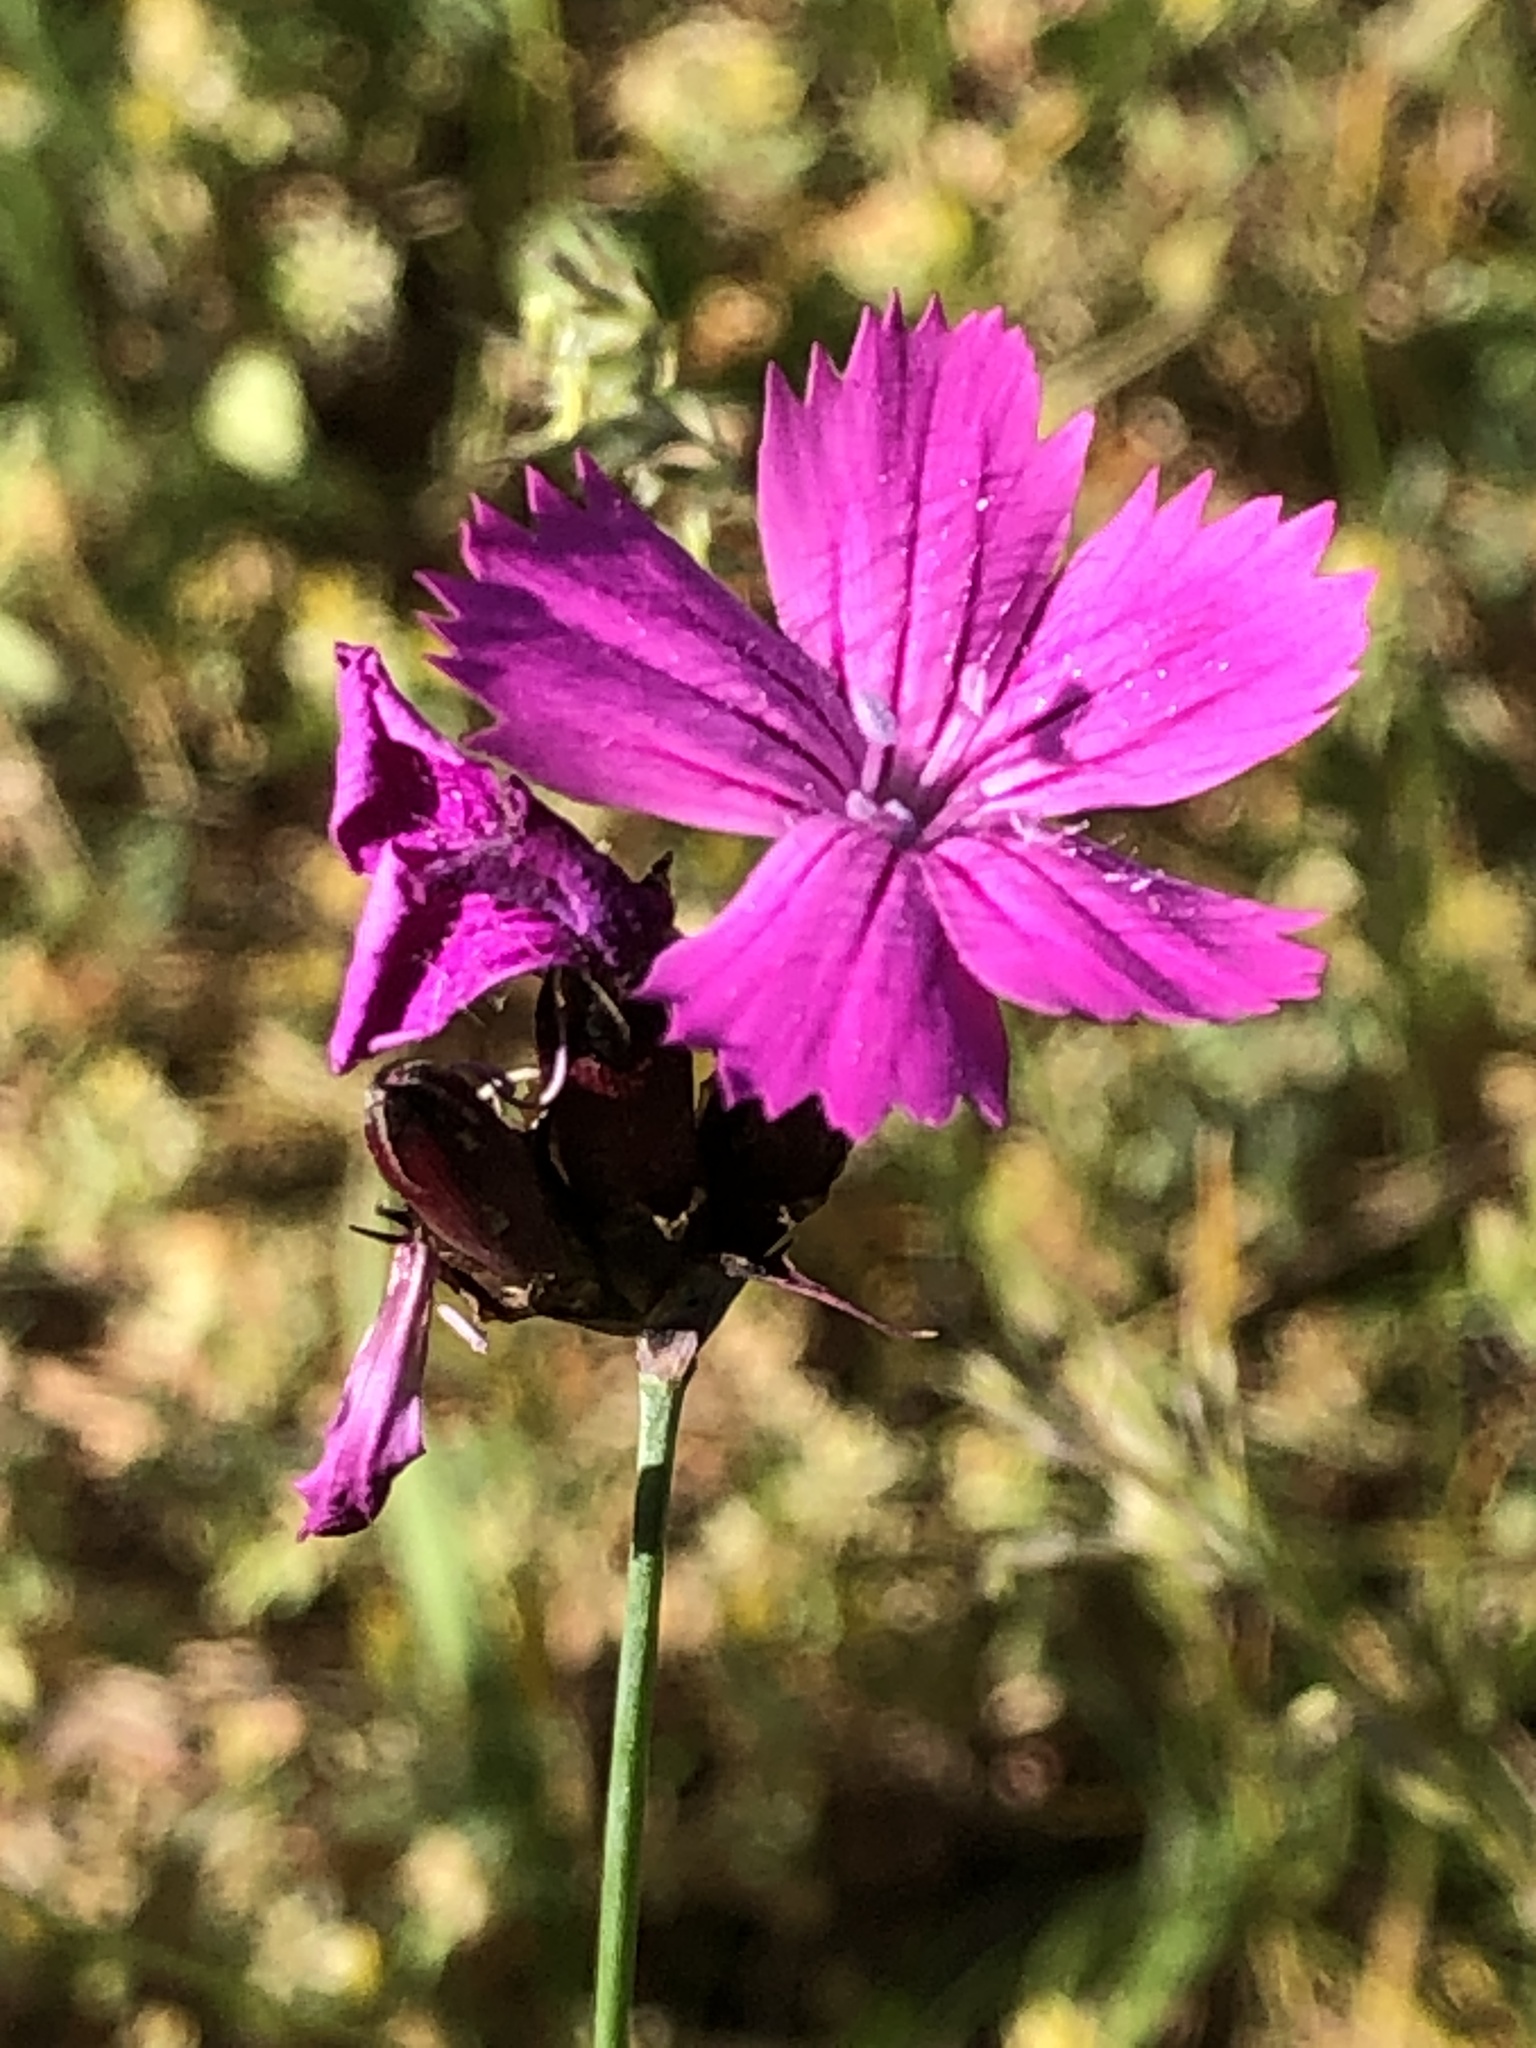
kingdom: Plantae
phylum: Tracheophyta
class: Magnoliopsida
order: Caryophyllales
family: Caryophyllaceae
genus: Dianthus
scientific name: Dianthus carthusianorum
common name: Carthusian pink
